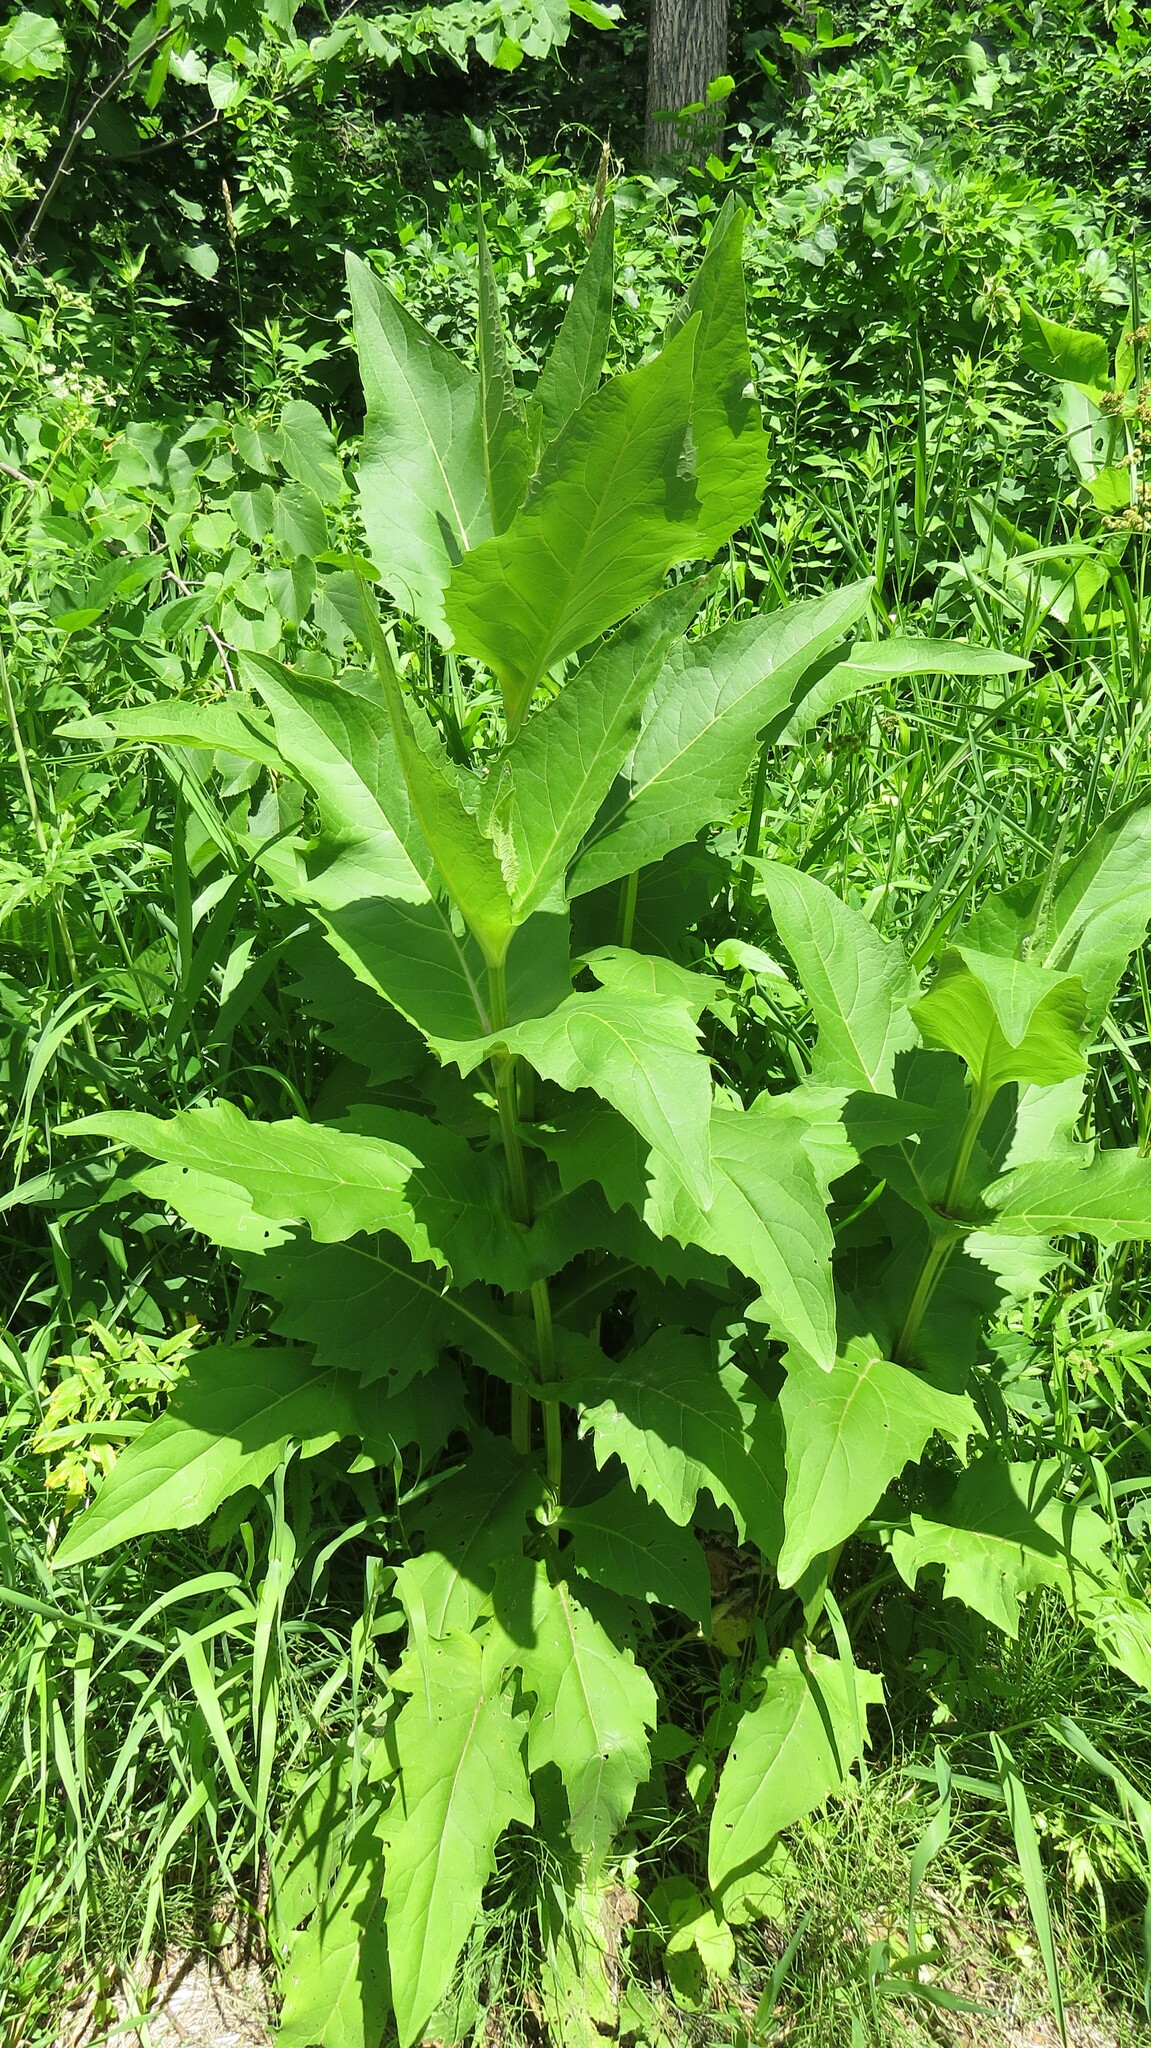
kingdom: Plantae
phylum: Tracheophyta
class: Magnoliopsida
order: Asterales
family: Asteraceae
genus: Silphium
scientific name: Silphium perfoliatum
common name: Cup-plant
